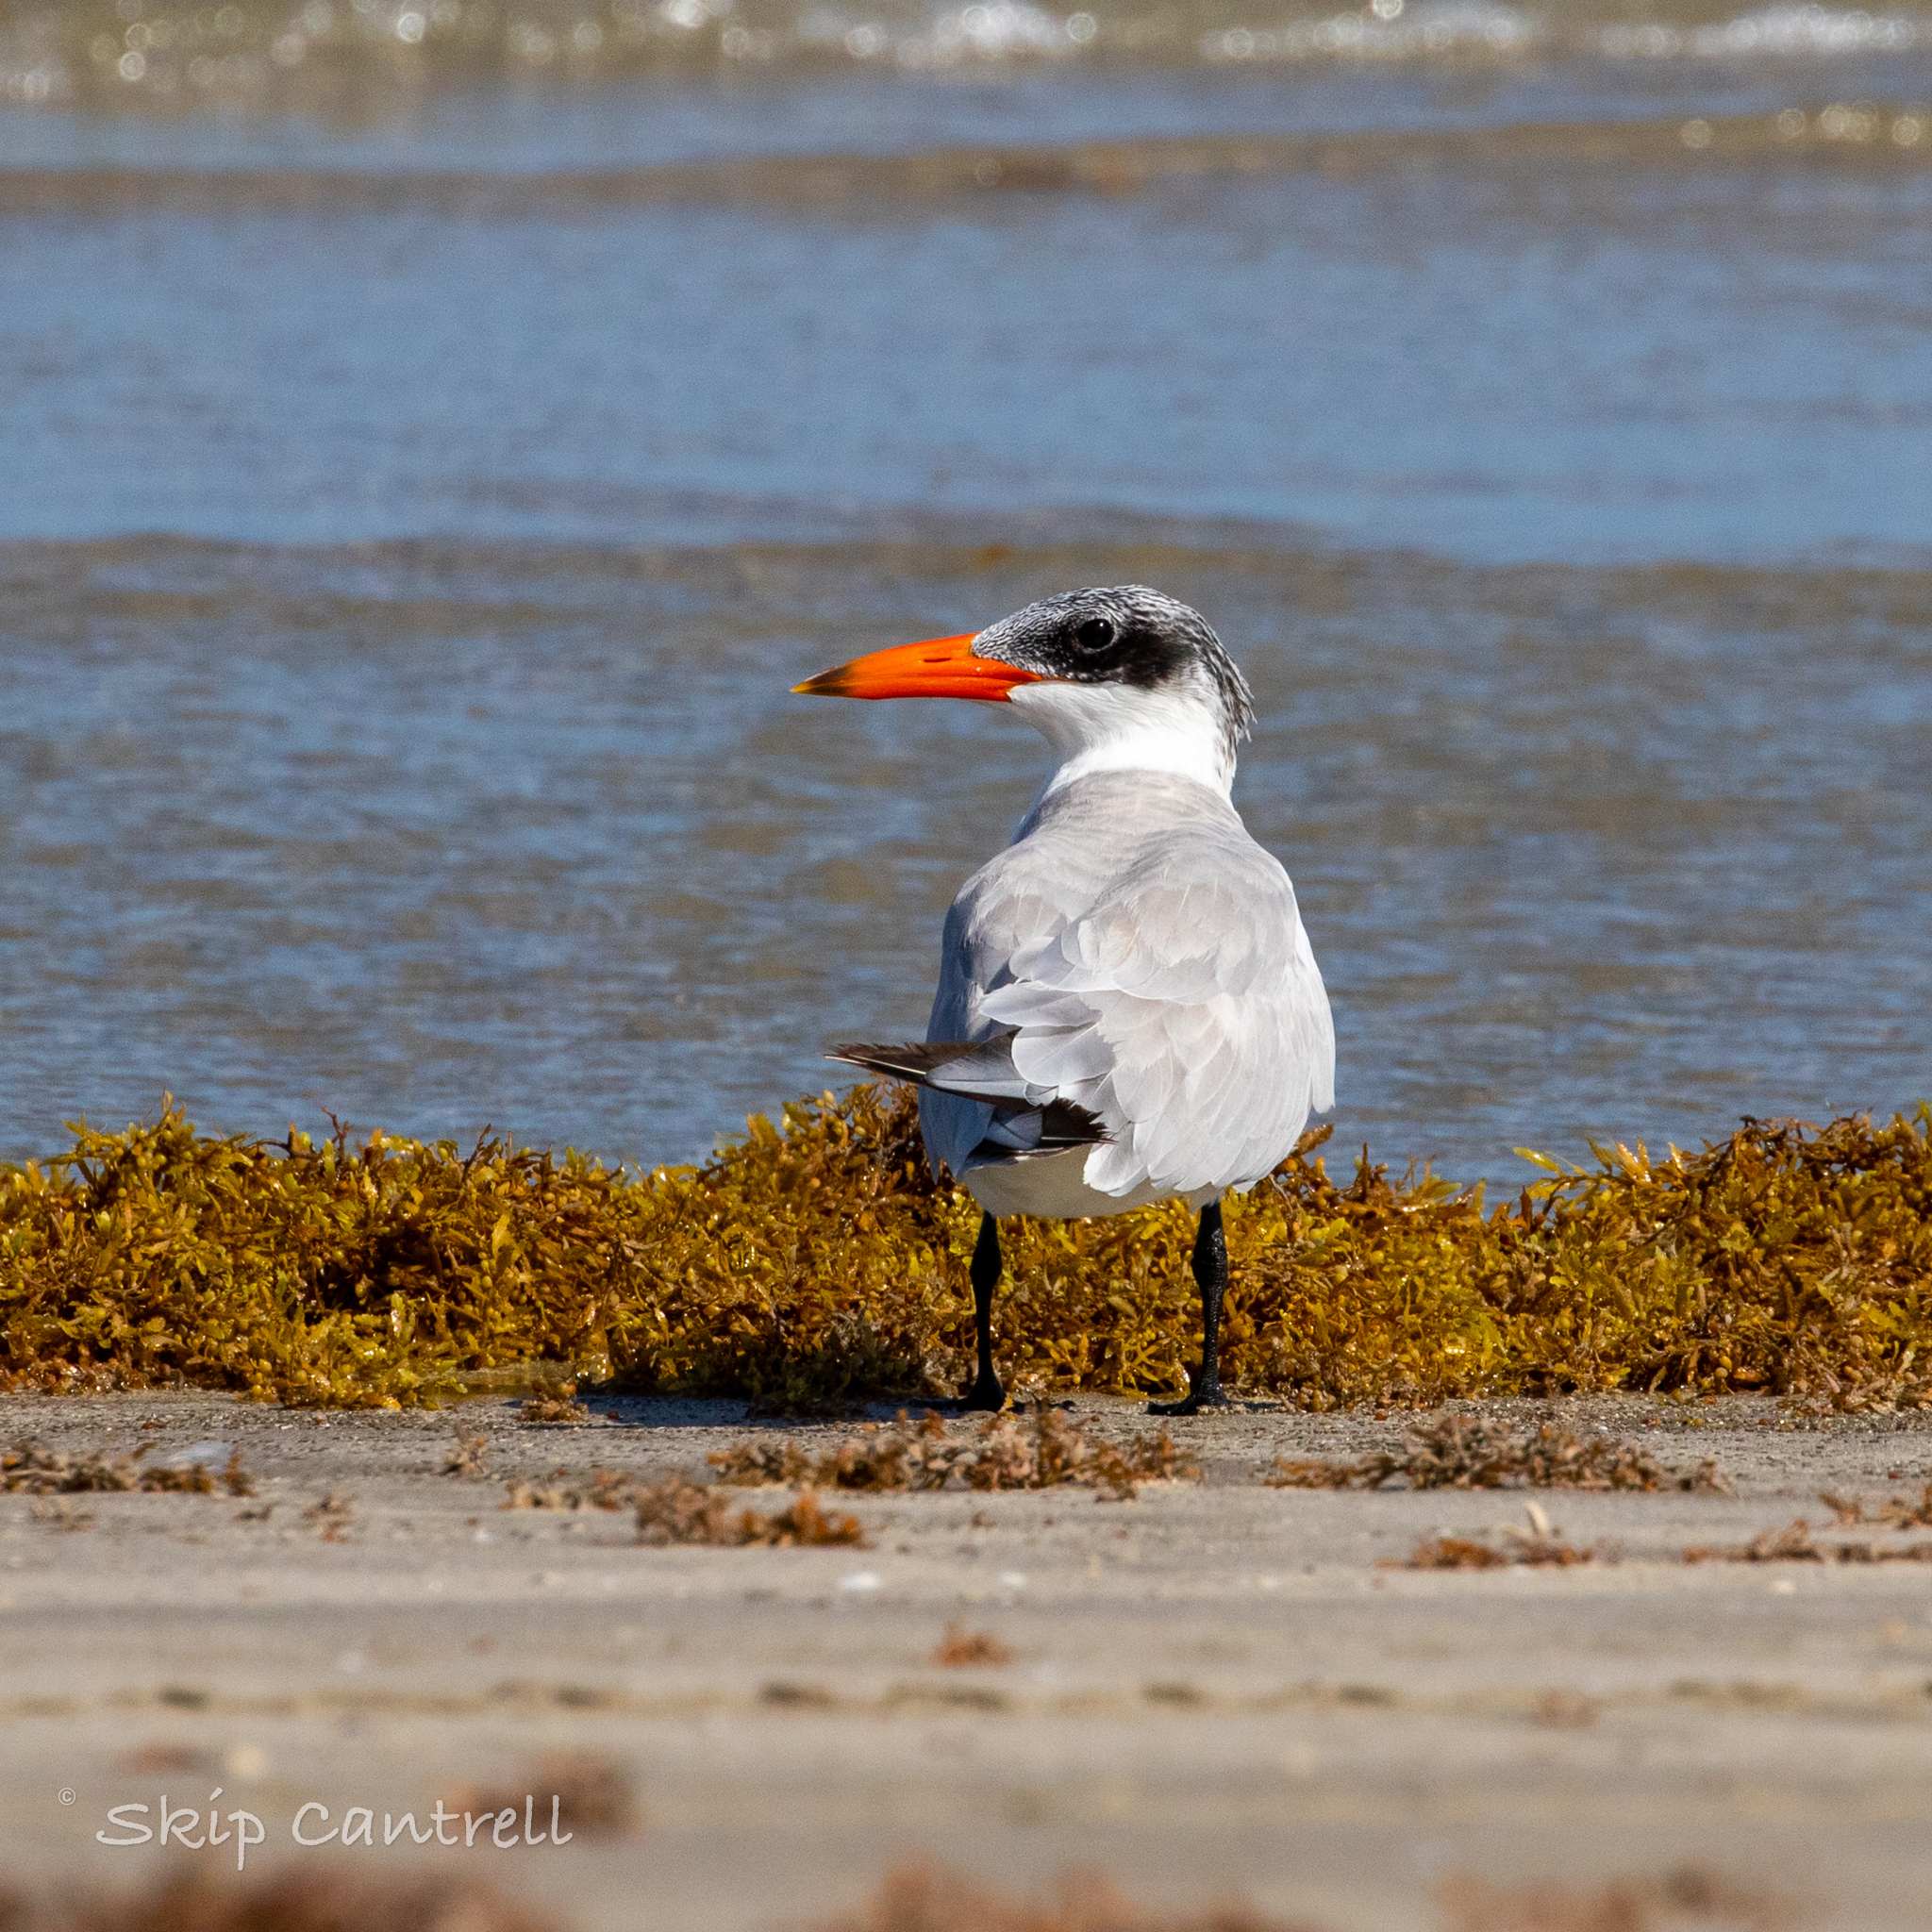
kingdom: Animalia
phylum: Chordata
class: Aves
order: Charadriiformes
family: Laridae
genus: Hydroprogne
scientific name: Hydroprogne caspia
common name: Caspian tern
